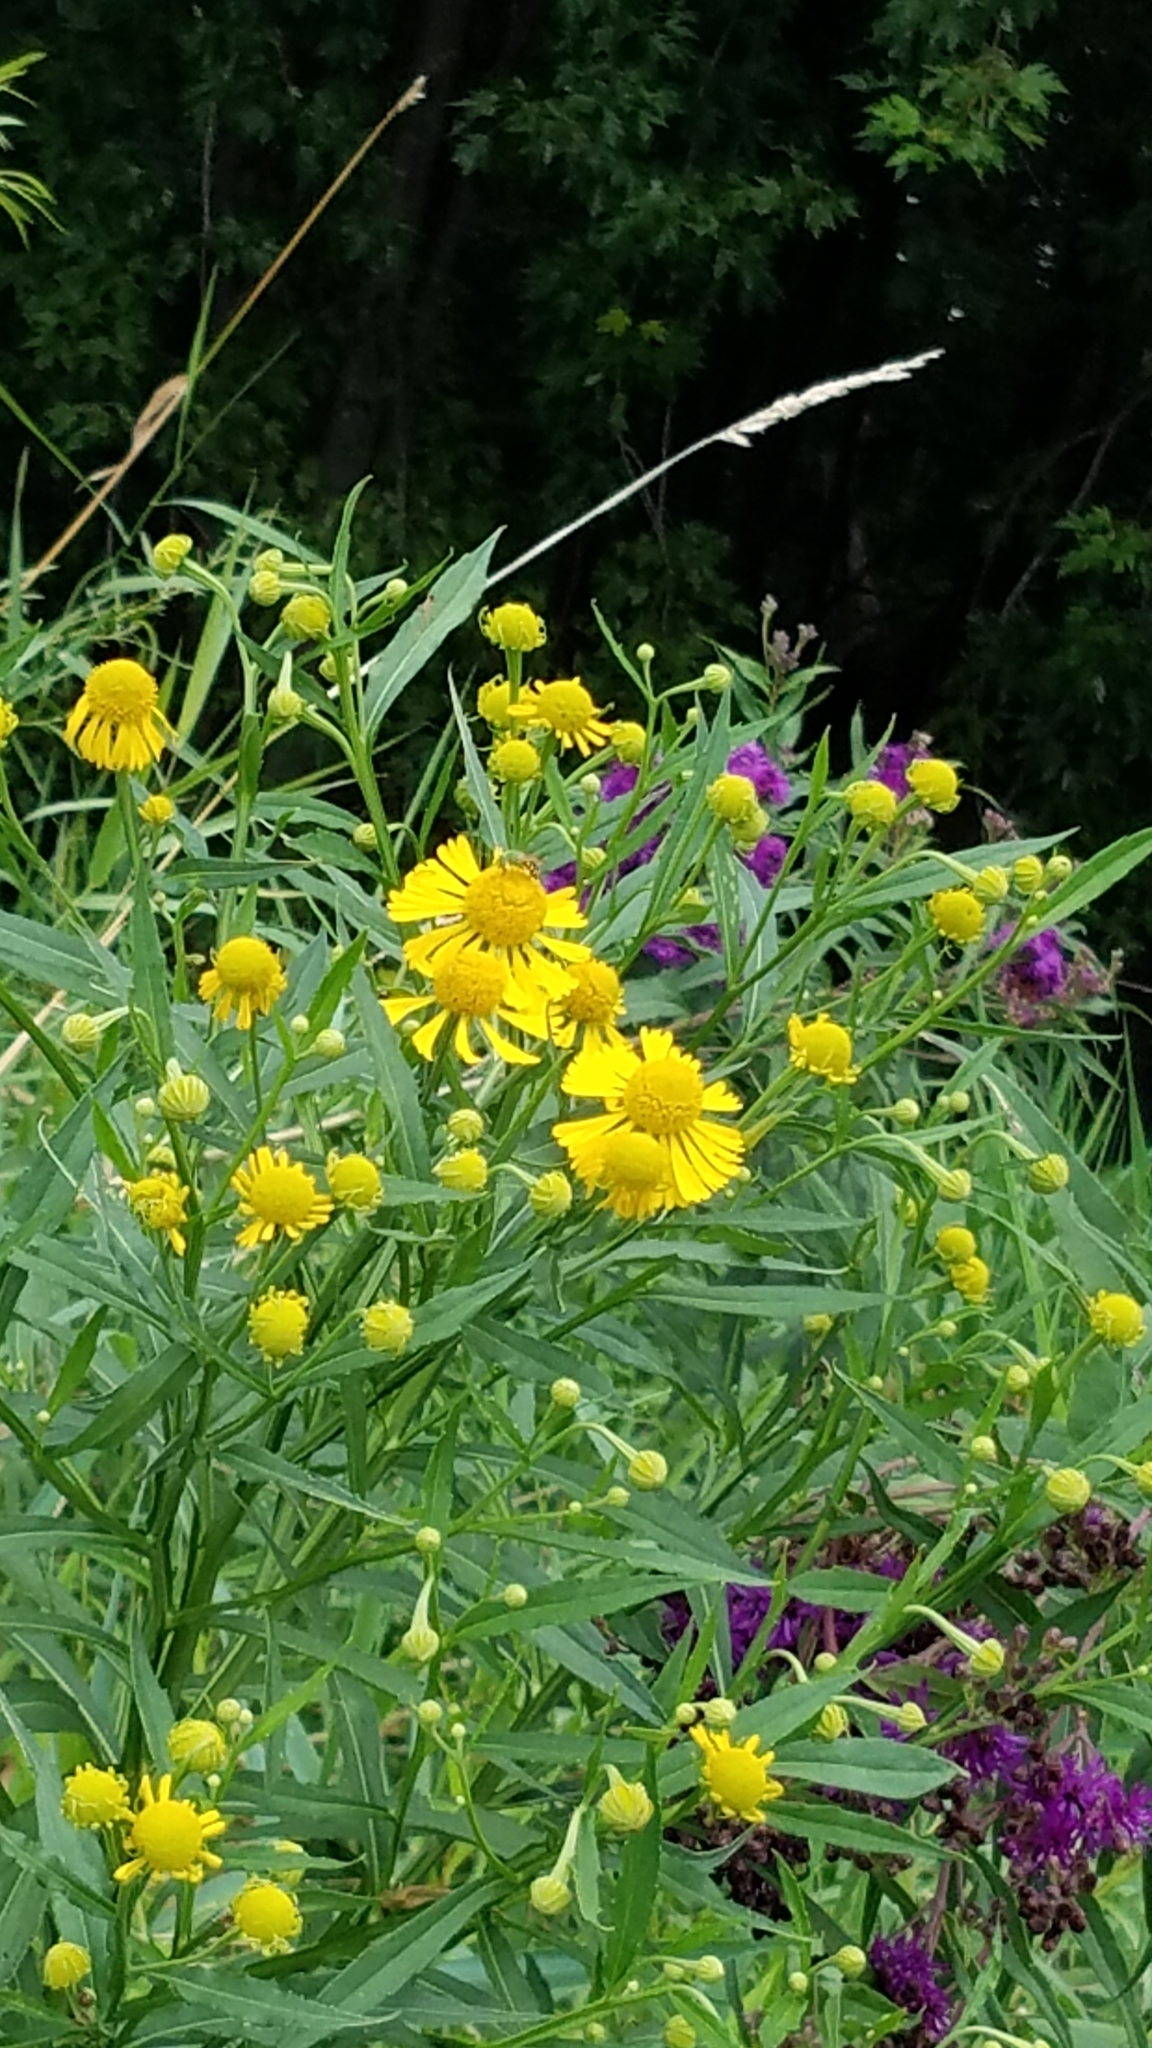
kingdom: Plantae
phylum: Tracheophyta
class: Magnoliopsida
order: Asterales
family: Asteraceae
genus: Helenium
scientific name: Helenium autumnale
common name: Sneezeweed
